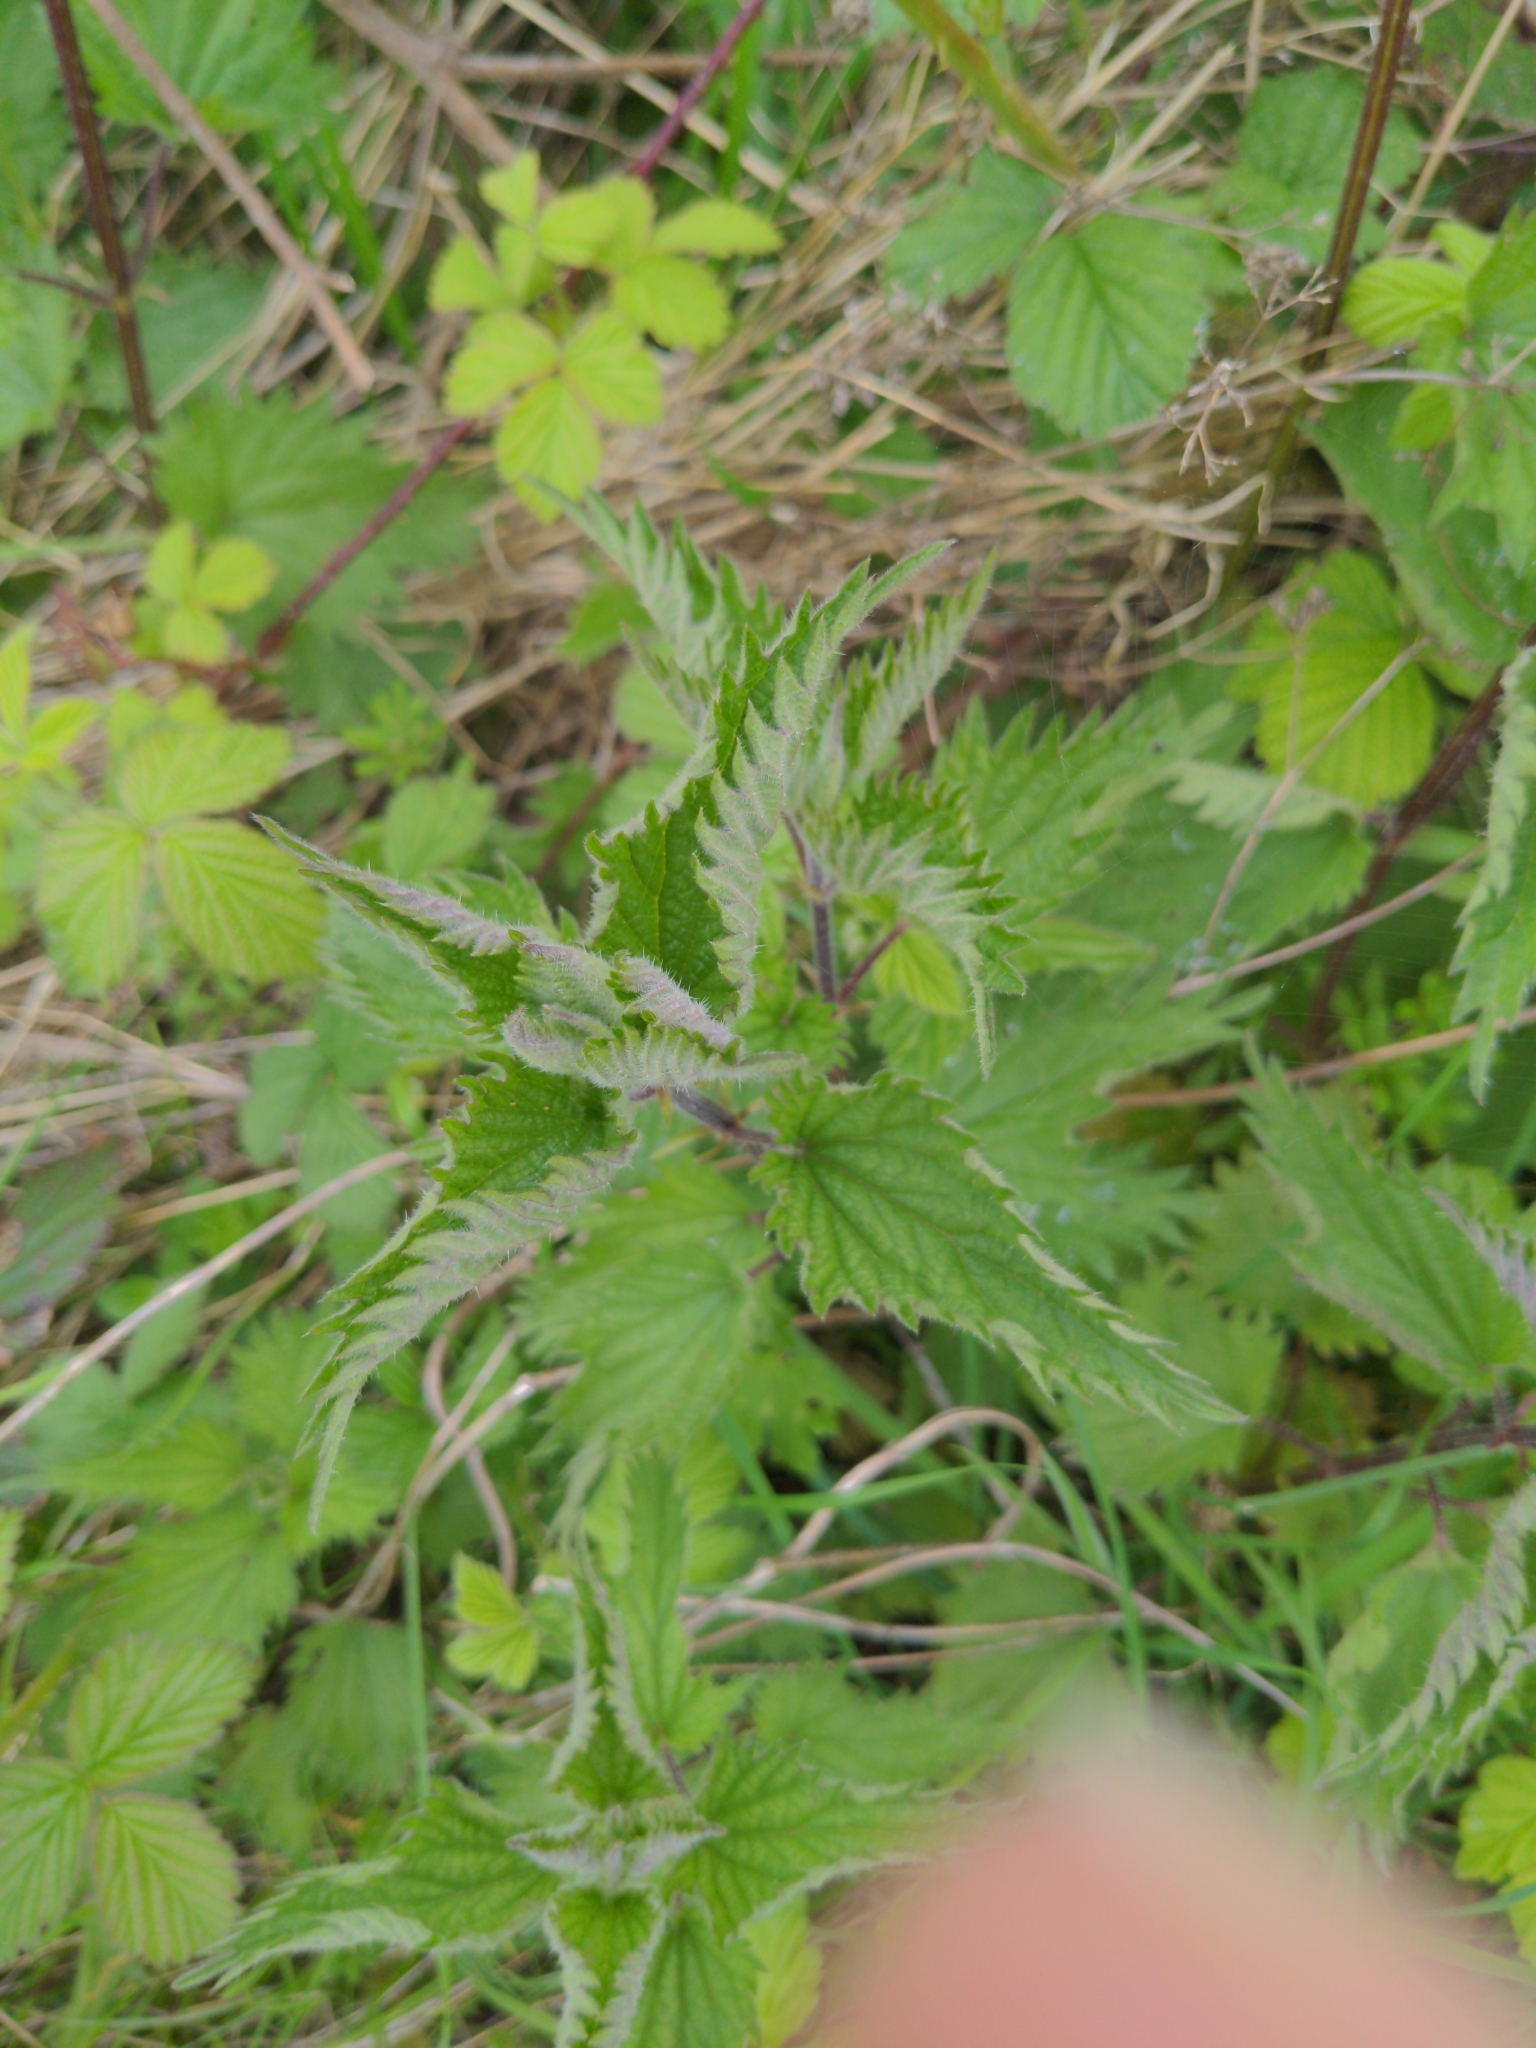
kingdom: Plantae
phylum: Tracheophyta
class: Magnoliopsida
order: Rosales
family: Urticaceae
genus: Urtica
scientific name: Urtica dioica
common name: Common nettle
